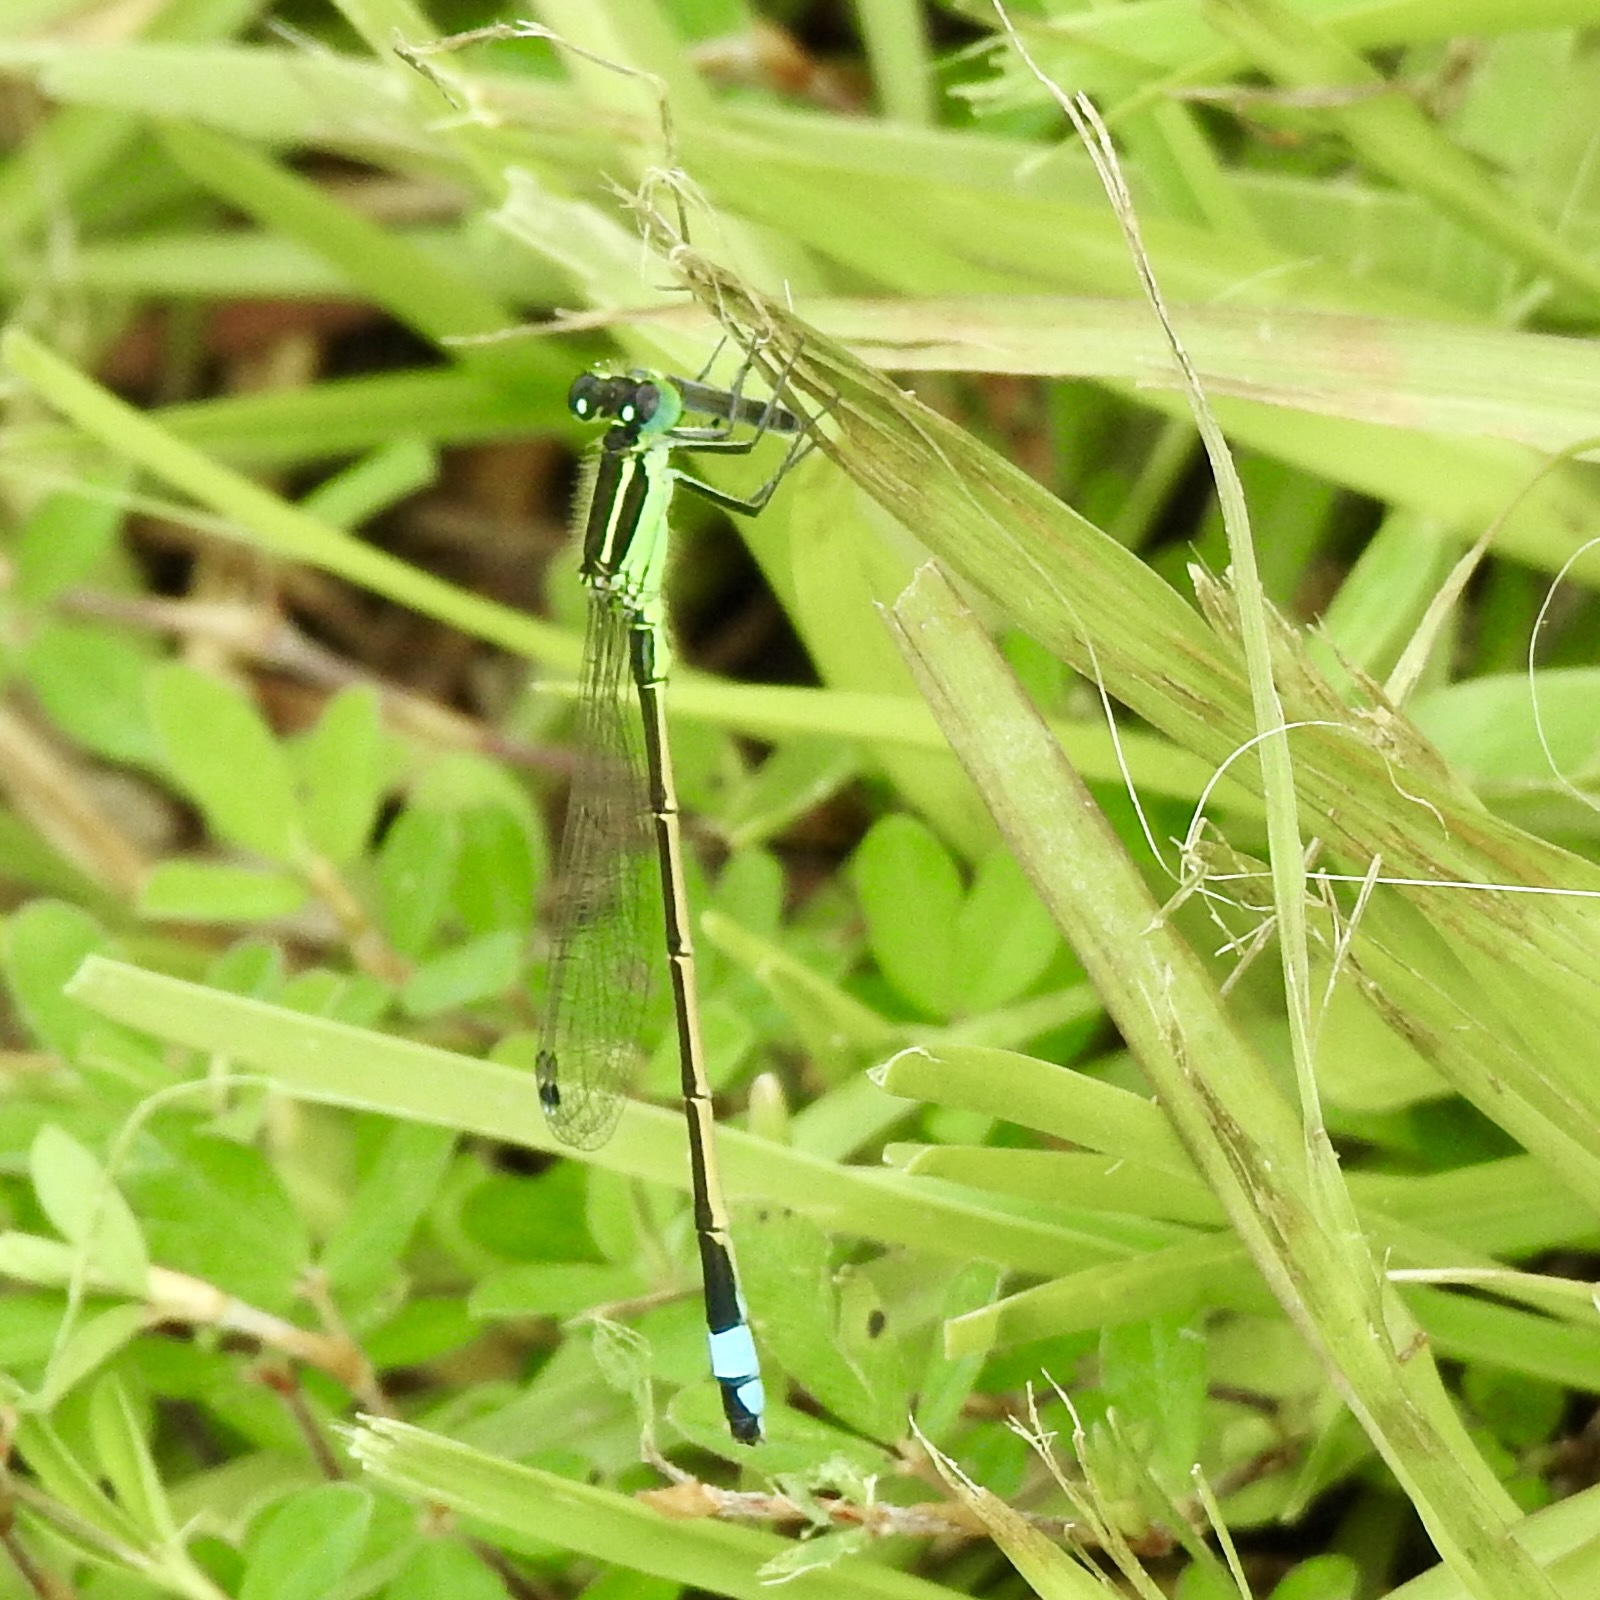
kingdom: Animalia
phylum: Arthropoda
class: Insecta
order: Odonata
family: Coenagrionidae
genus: Ischnura
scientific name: Ischnura ramburii
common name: Rambur's forktail
